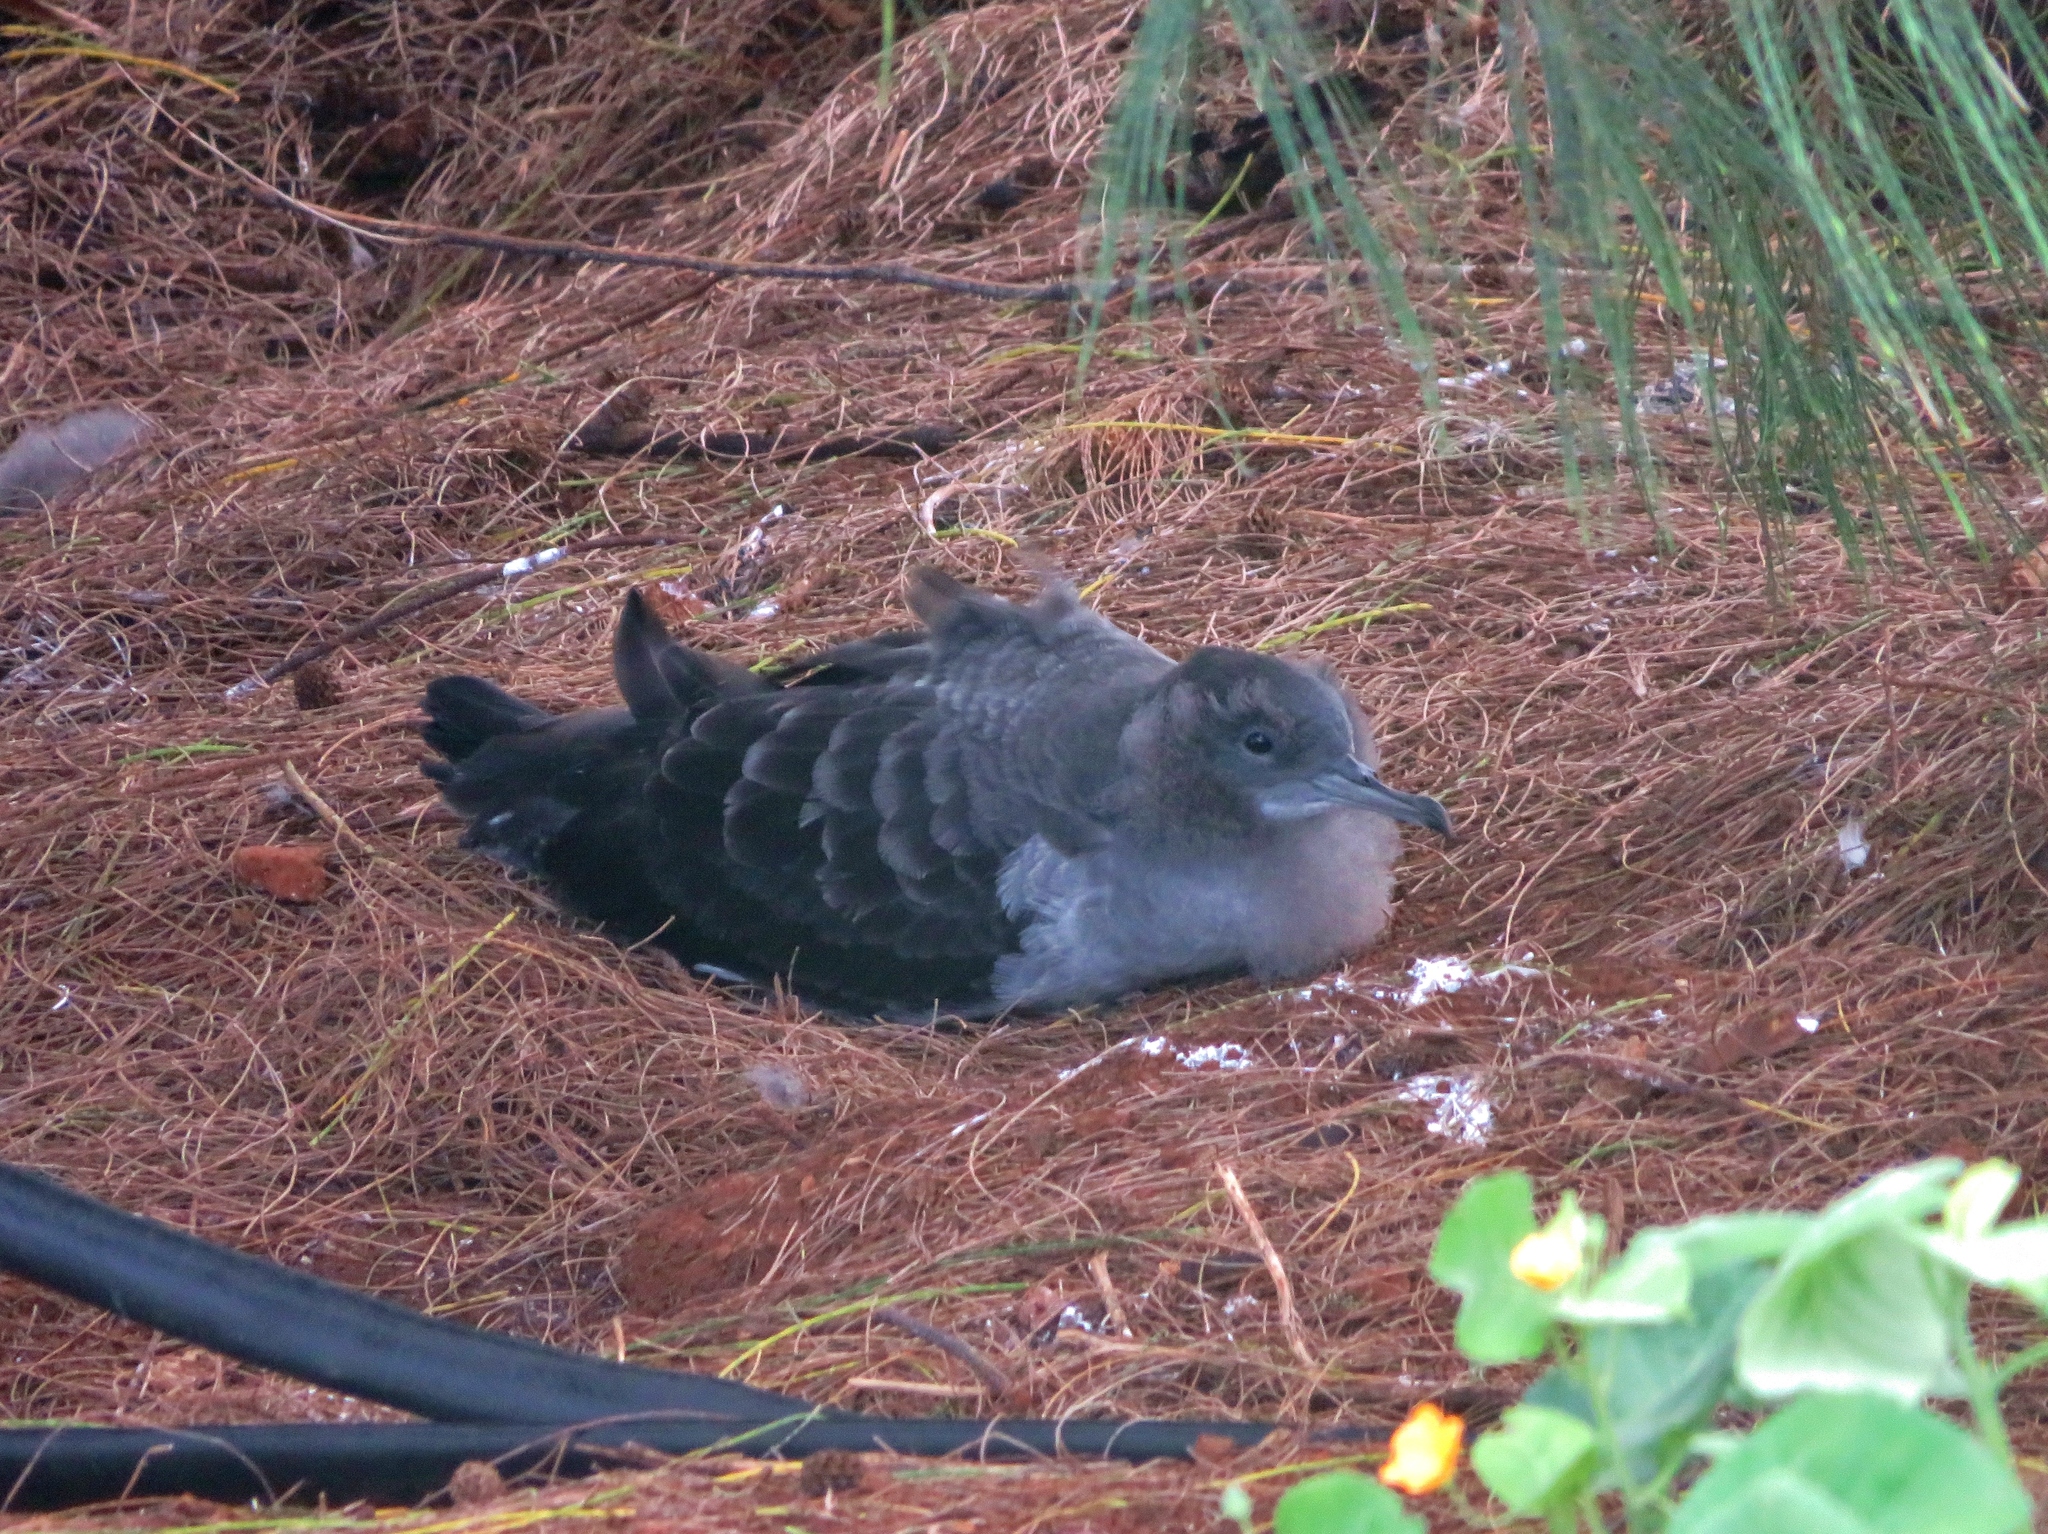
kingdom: Animalia
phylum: Chordata
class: Aves
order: Procellariiformes
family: Procellariidae
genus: Puffinus
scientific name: Puffinus pacificus
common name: Wedge-tailed shearwater
